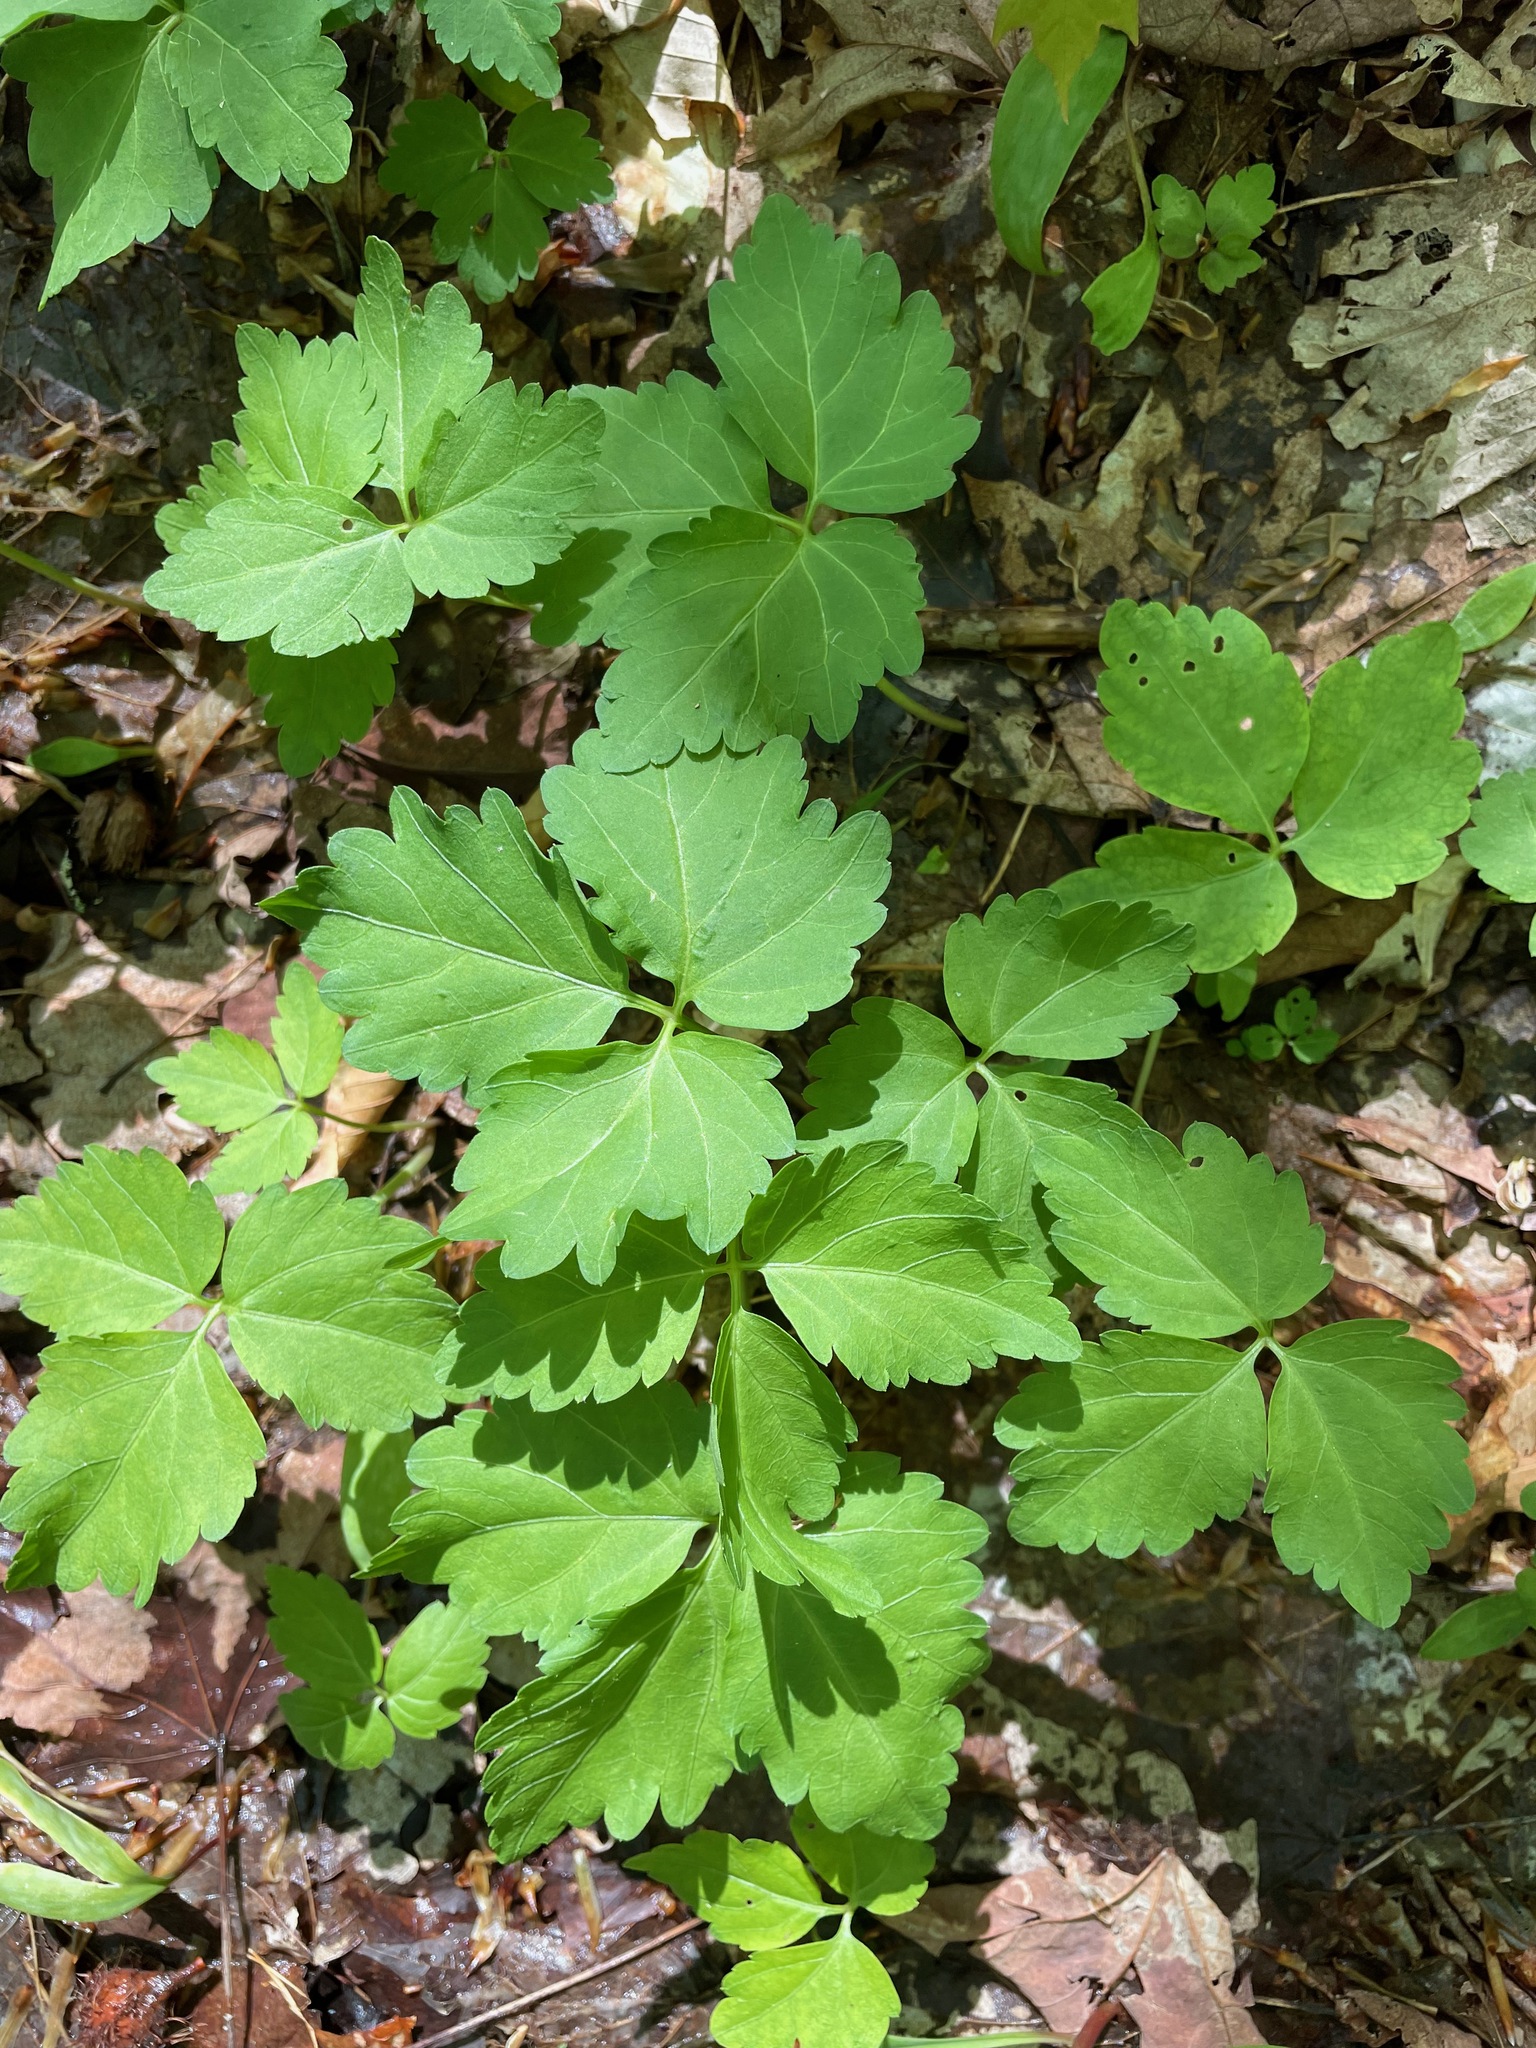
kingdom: Plantae
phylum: Tracheophyta
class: Magnoliopsida
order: Brassicales
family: Brassicaceae
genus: Cardamine
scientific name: Cardamine diphylla
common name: Broad-leaved toothwort
